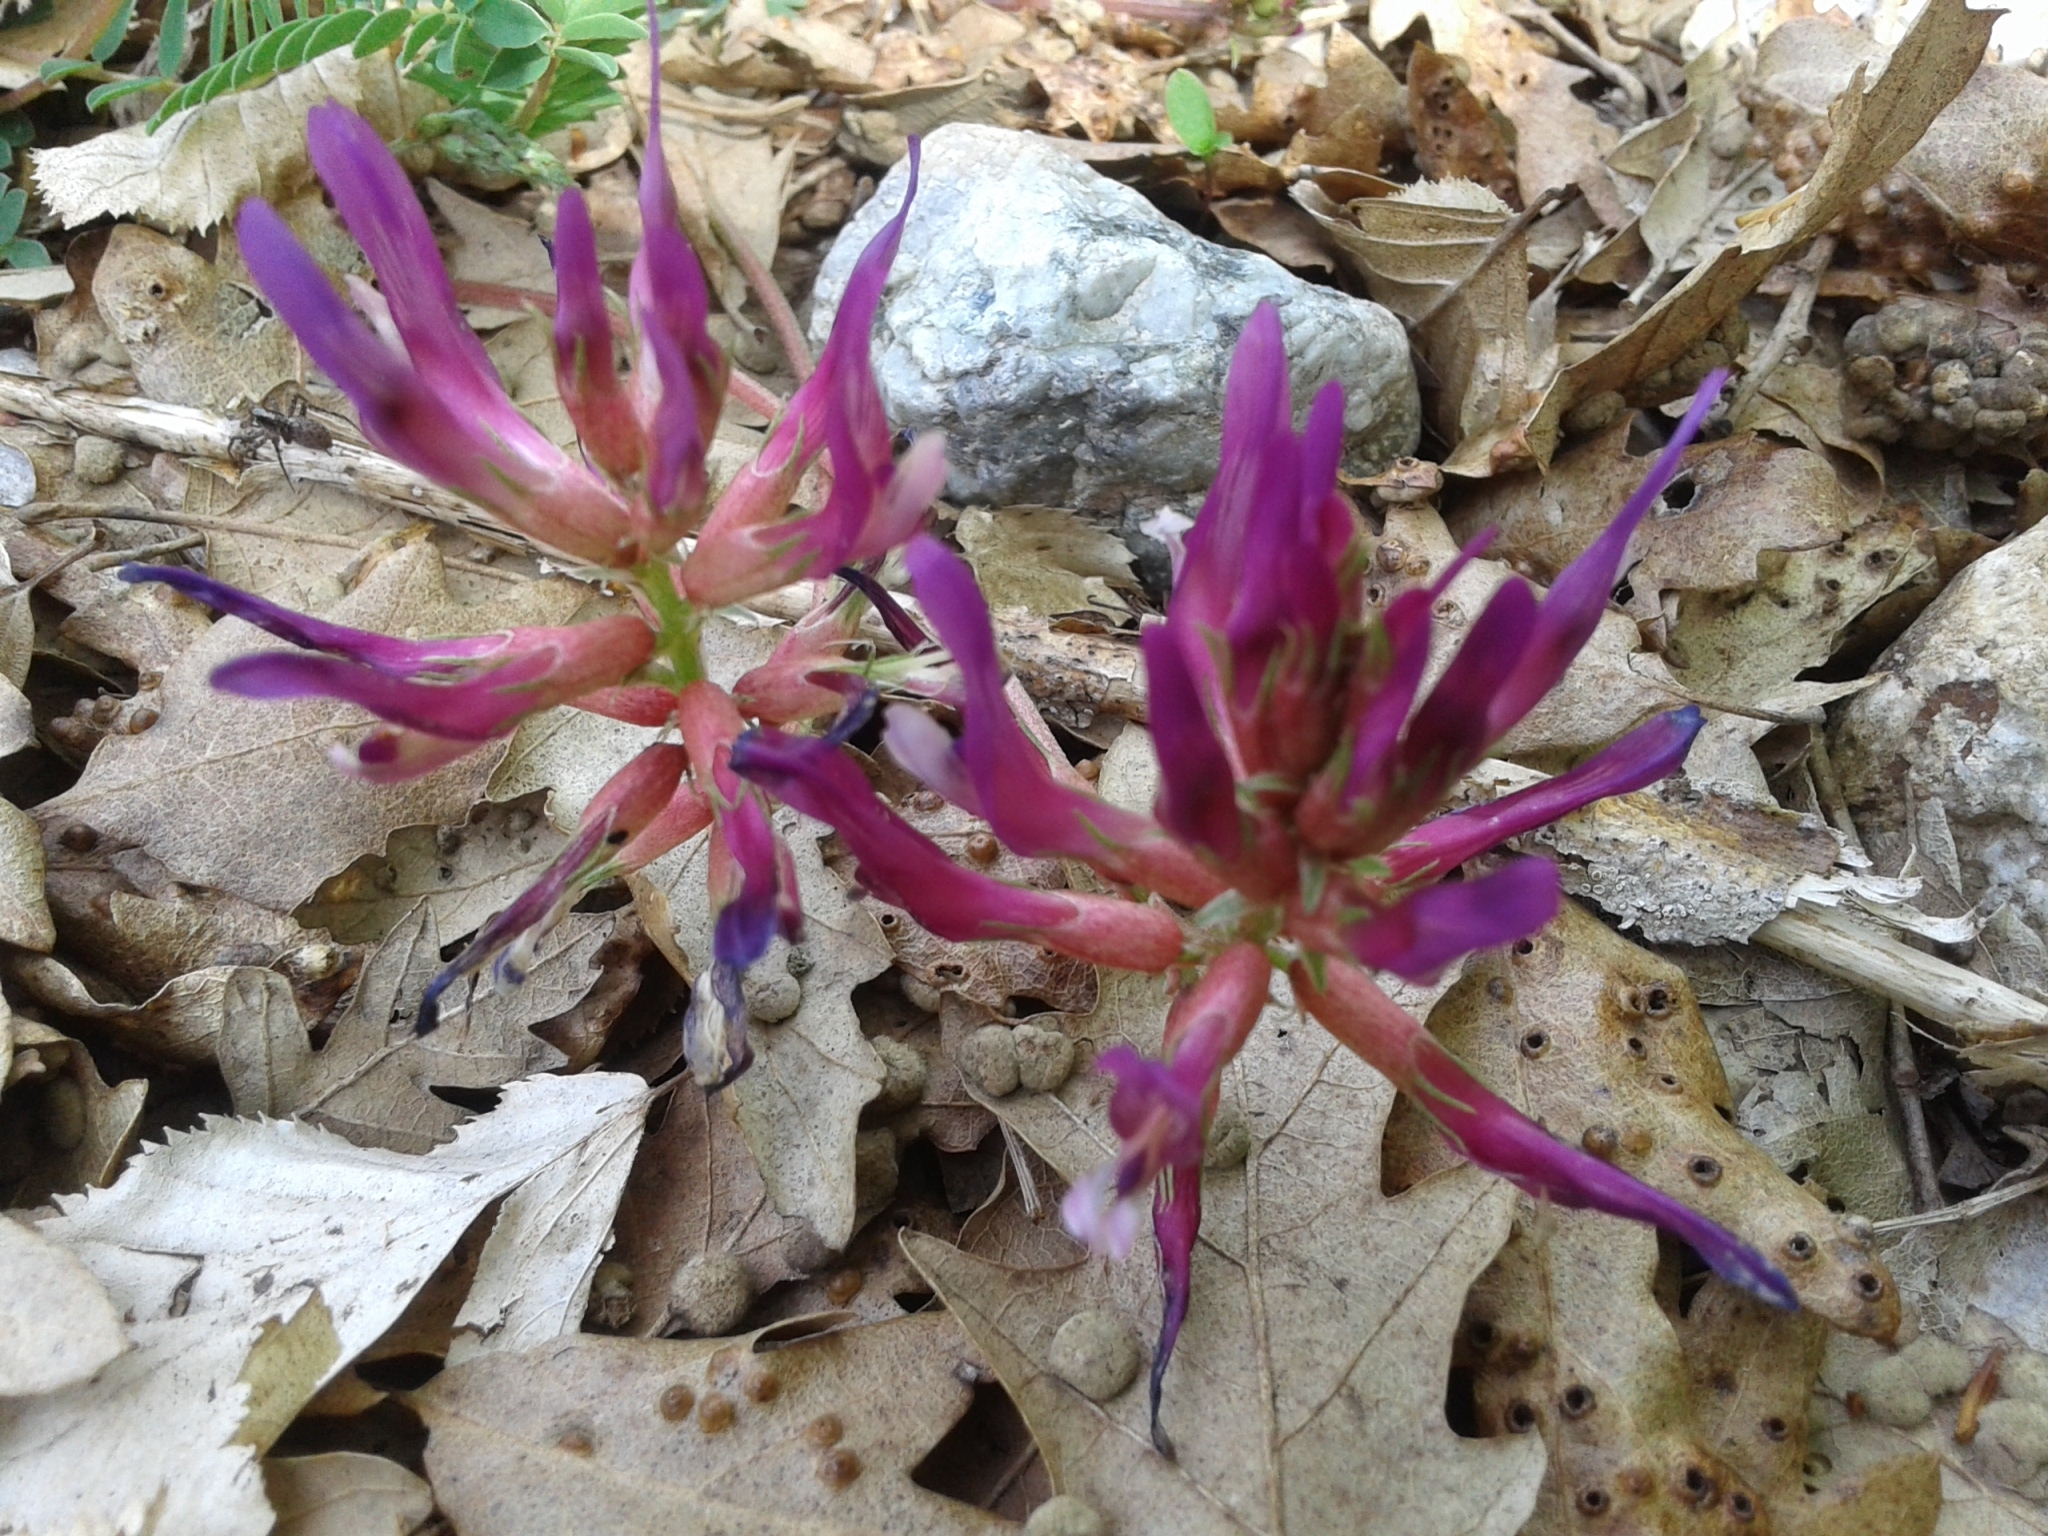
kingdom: Plantae
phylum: Tracheophyta
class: Magnoliopsida
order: Fabales
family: Fabaceae
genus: Astragalus
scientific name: Astragalus monspessulanus
